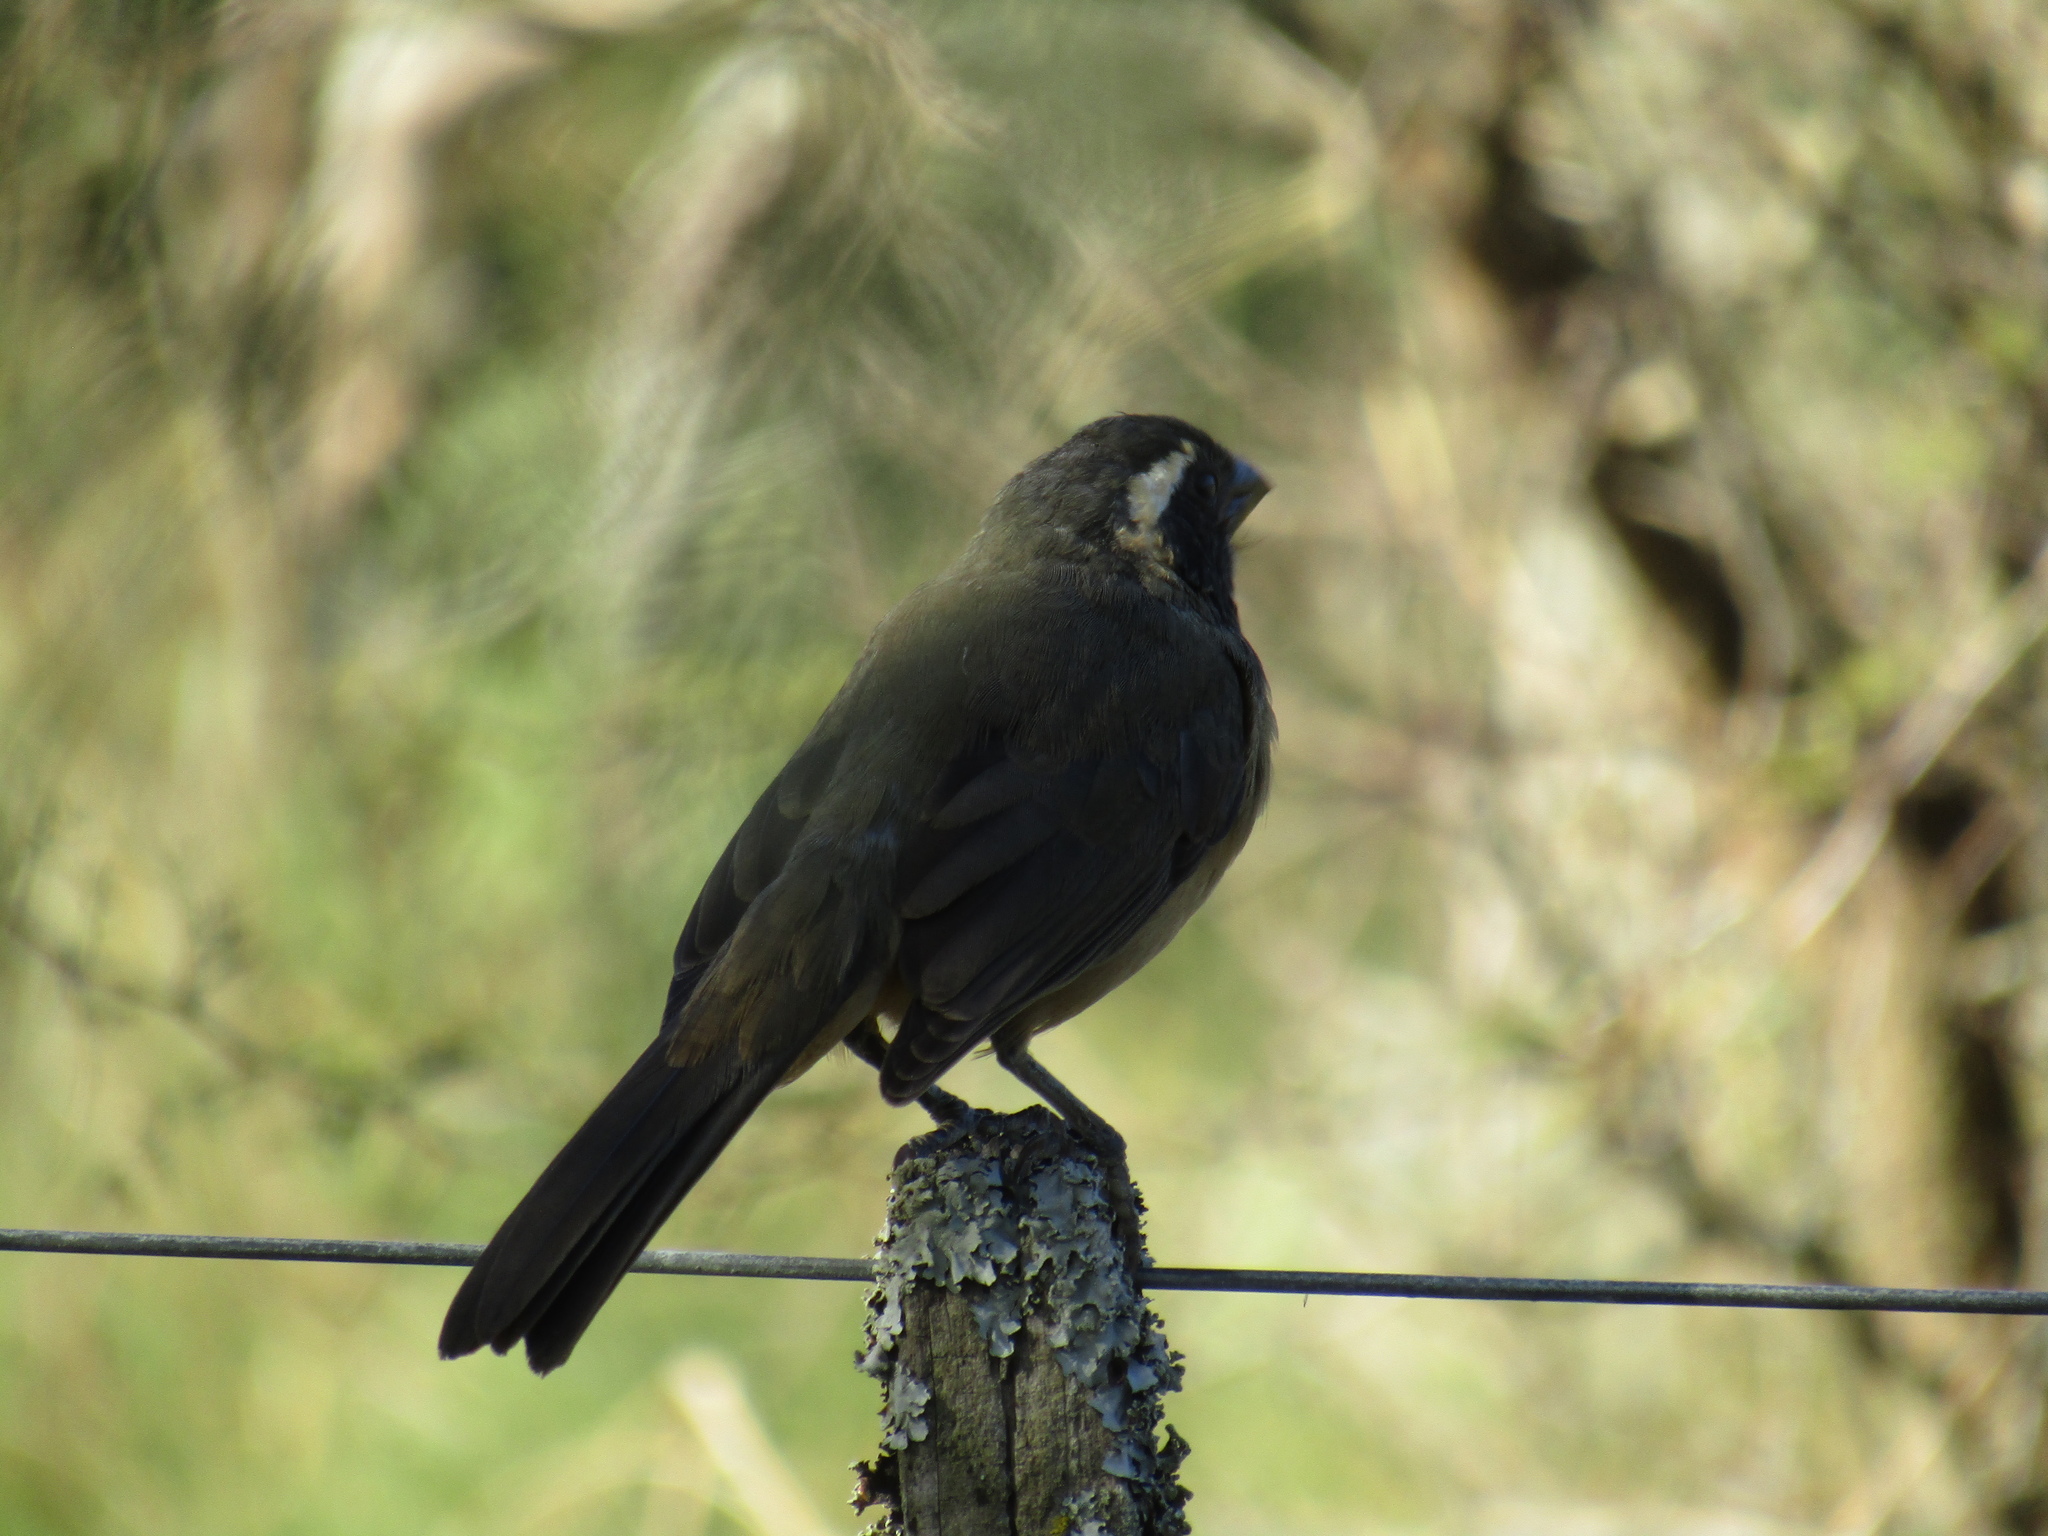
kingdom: Animalia
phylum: Chordata
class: Aves
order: Passeriformes
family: Thraupidae
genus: Saltator
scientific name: Saltator aurantiirostris
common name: Golden-billed saltator
